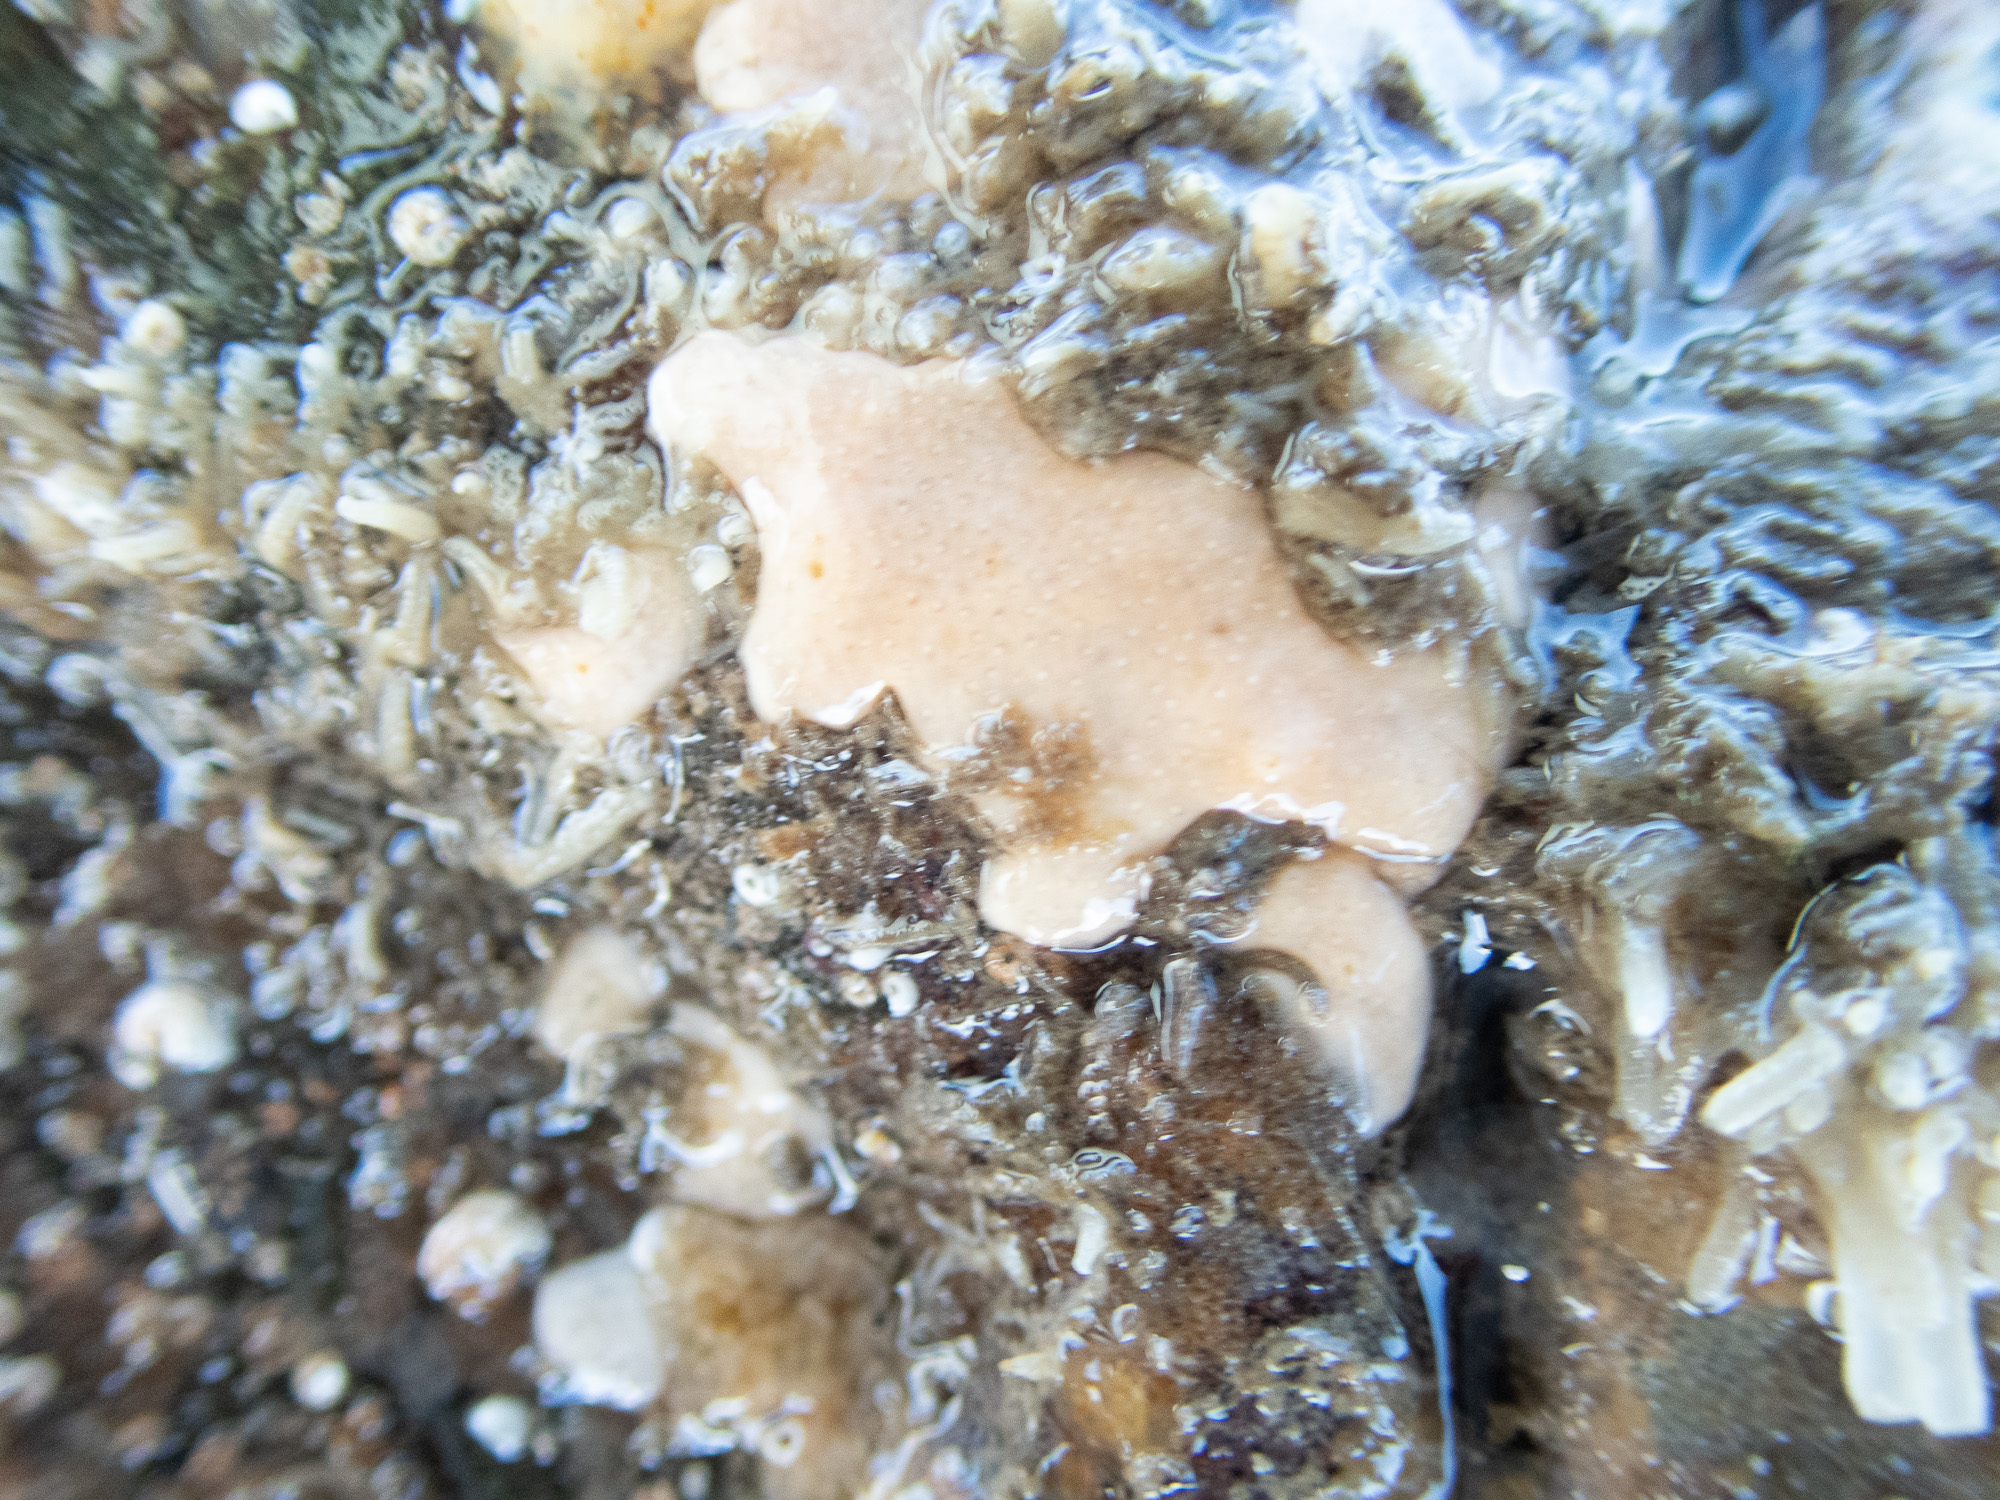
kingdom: Animalia
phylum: Chordata
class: Ascidiacea
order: Aplousobranchia
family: Didemnidae
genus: Didemnum
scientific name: Didemnum maculosum
